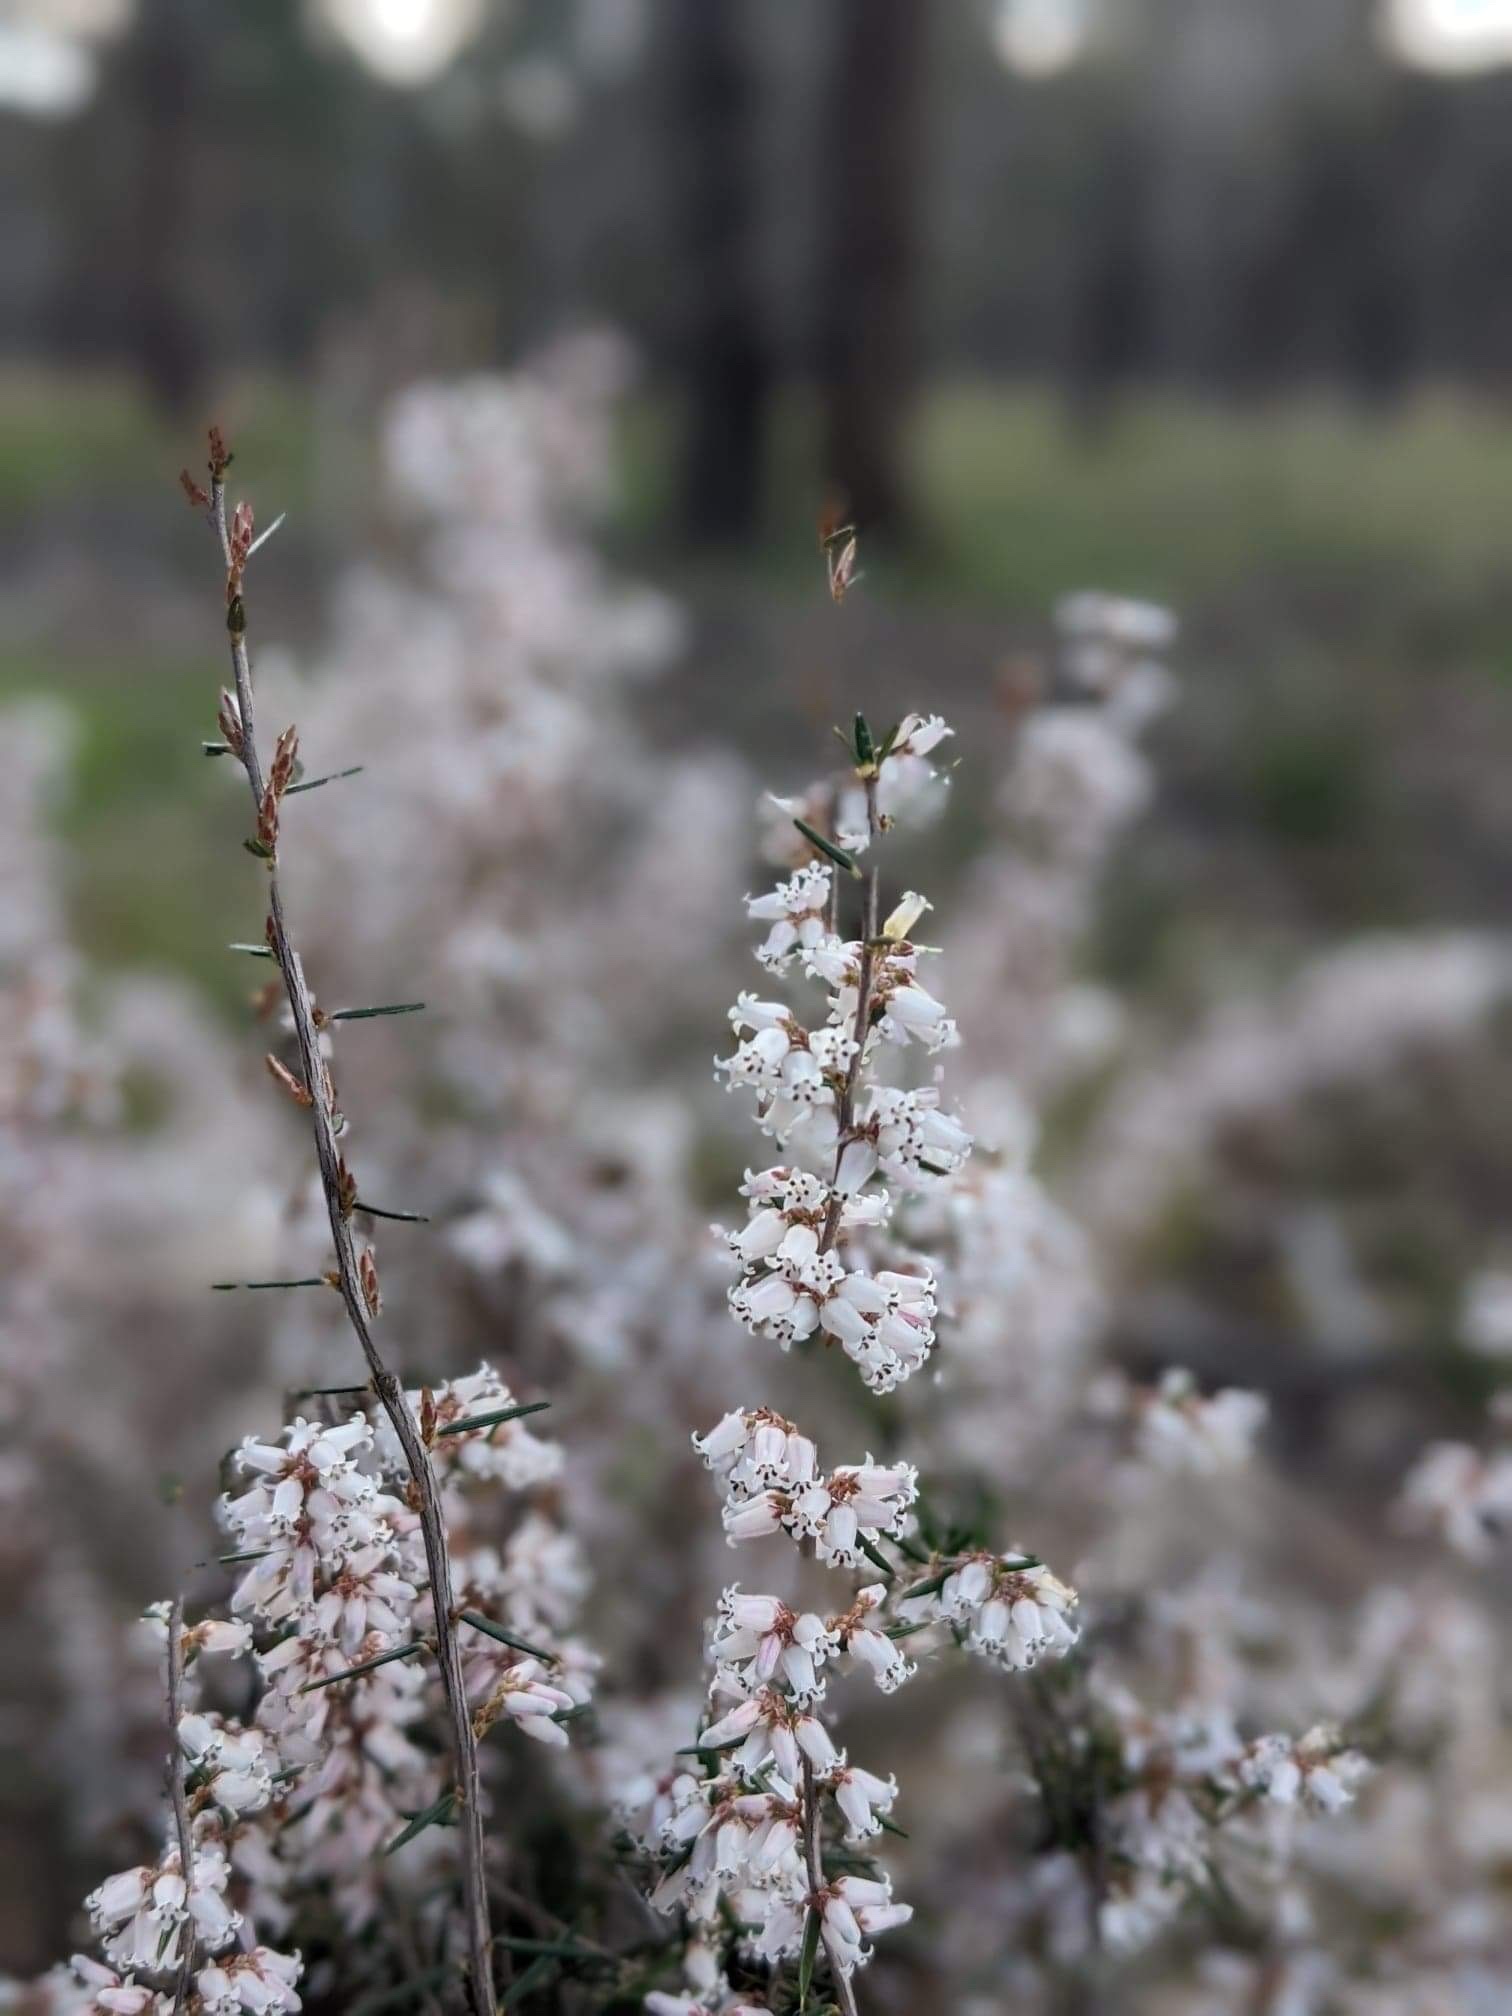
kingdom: Plantae
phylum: Tracheophyta
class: Magnoliopsida
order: Ericales
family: Ericaceae
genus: Lissanthe
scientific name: Lissanthe strigosa
